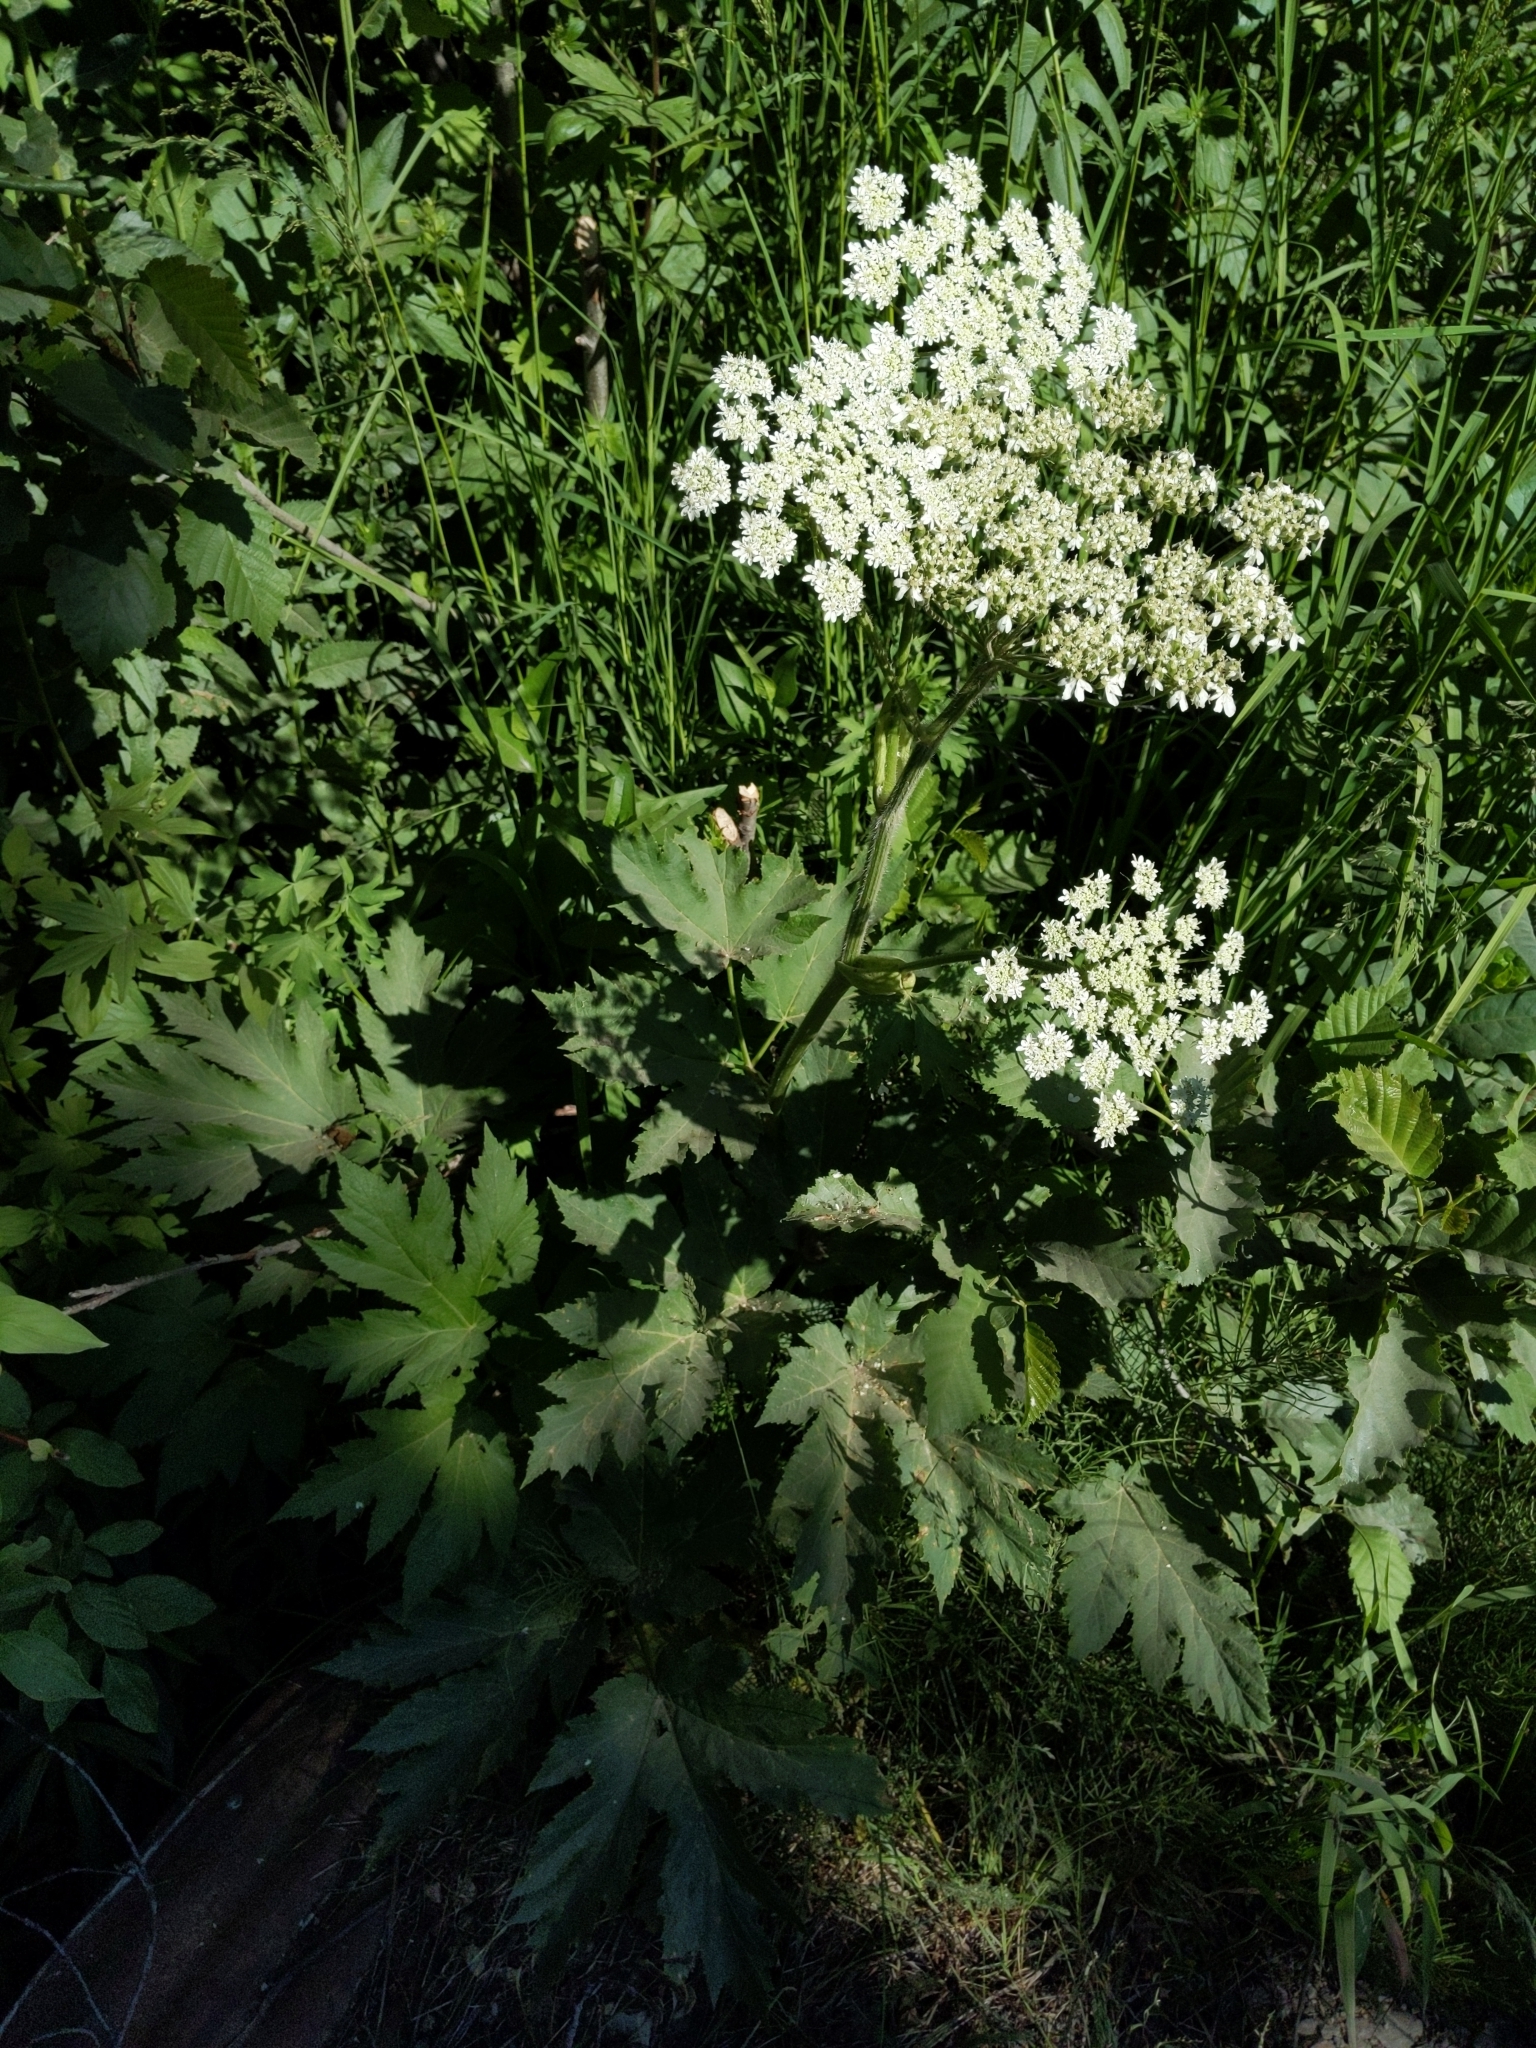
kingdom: Plantae
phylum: Tracheophyta
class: Magnoliopsida
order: Apiales
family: Apiaceae
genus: Heracleum
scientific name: Heracleum maximum
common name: American cow parsnip
